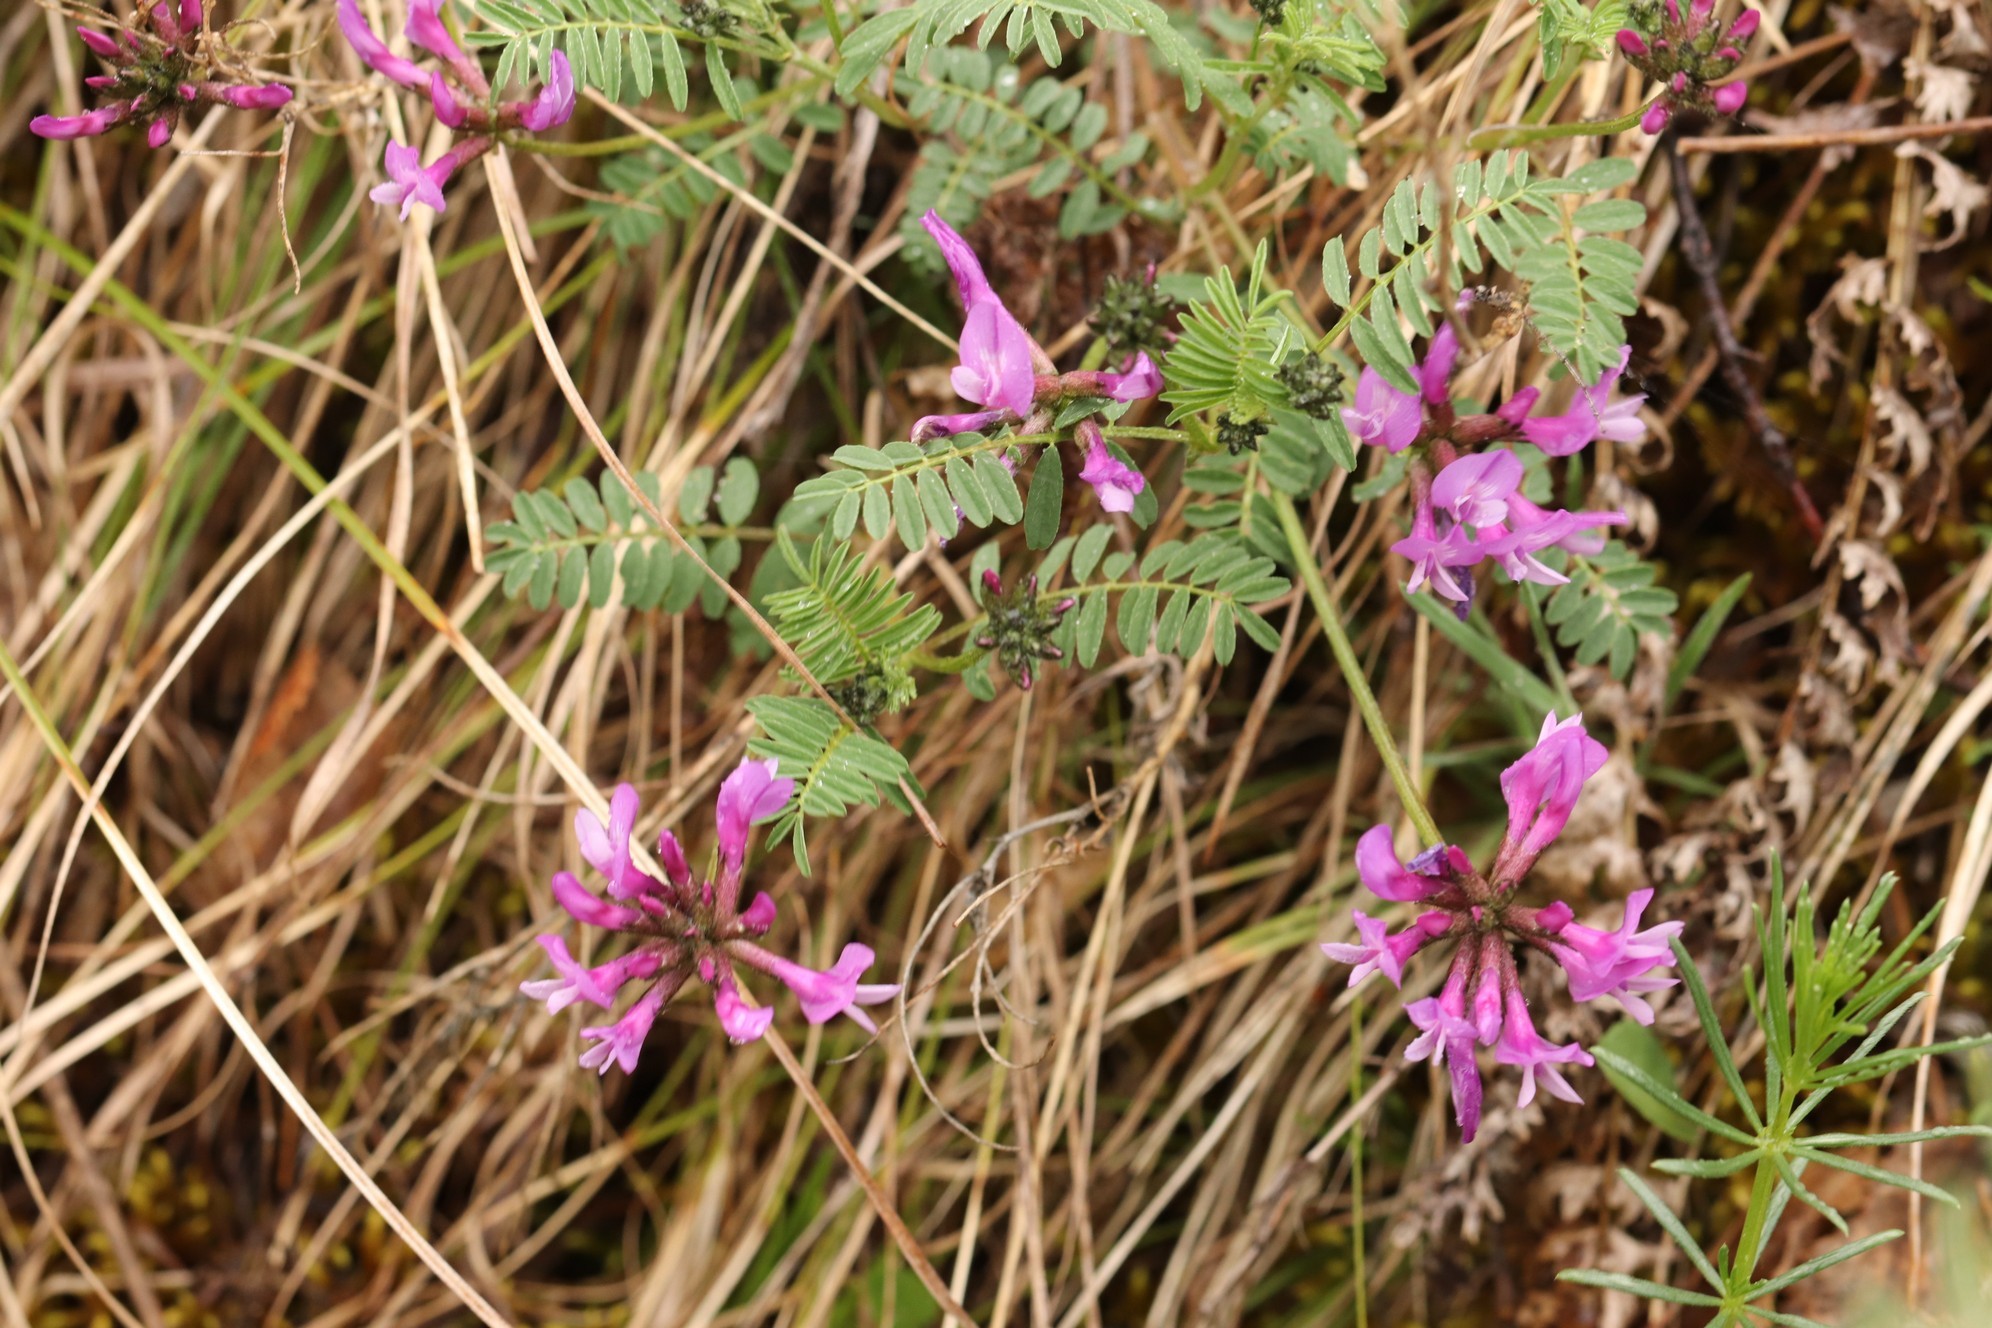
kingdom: Plantae
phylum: Tracheophyta
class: Magnoliopsida
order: Fabales
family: Fabaceae
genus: Astragalus
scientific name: Astragalus ceratoides
